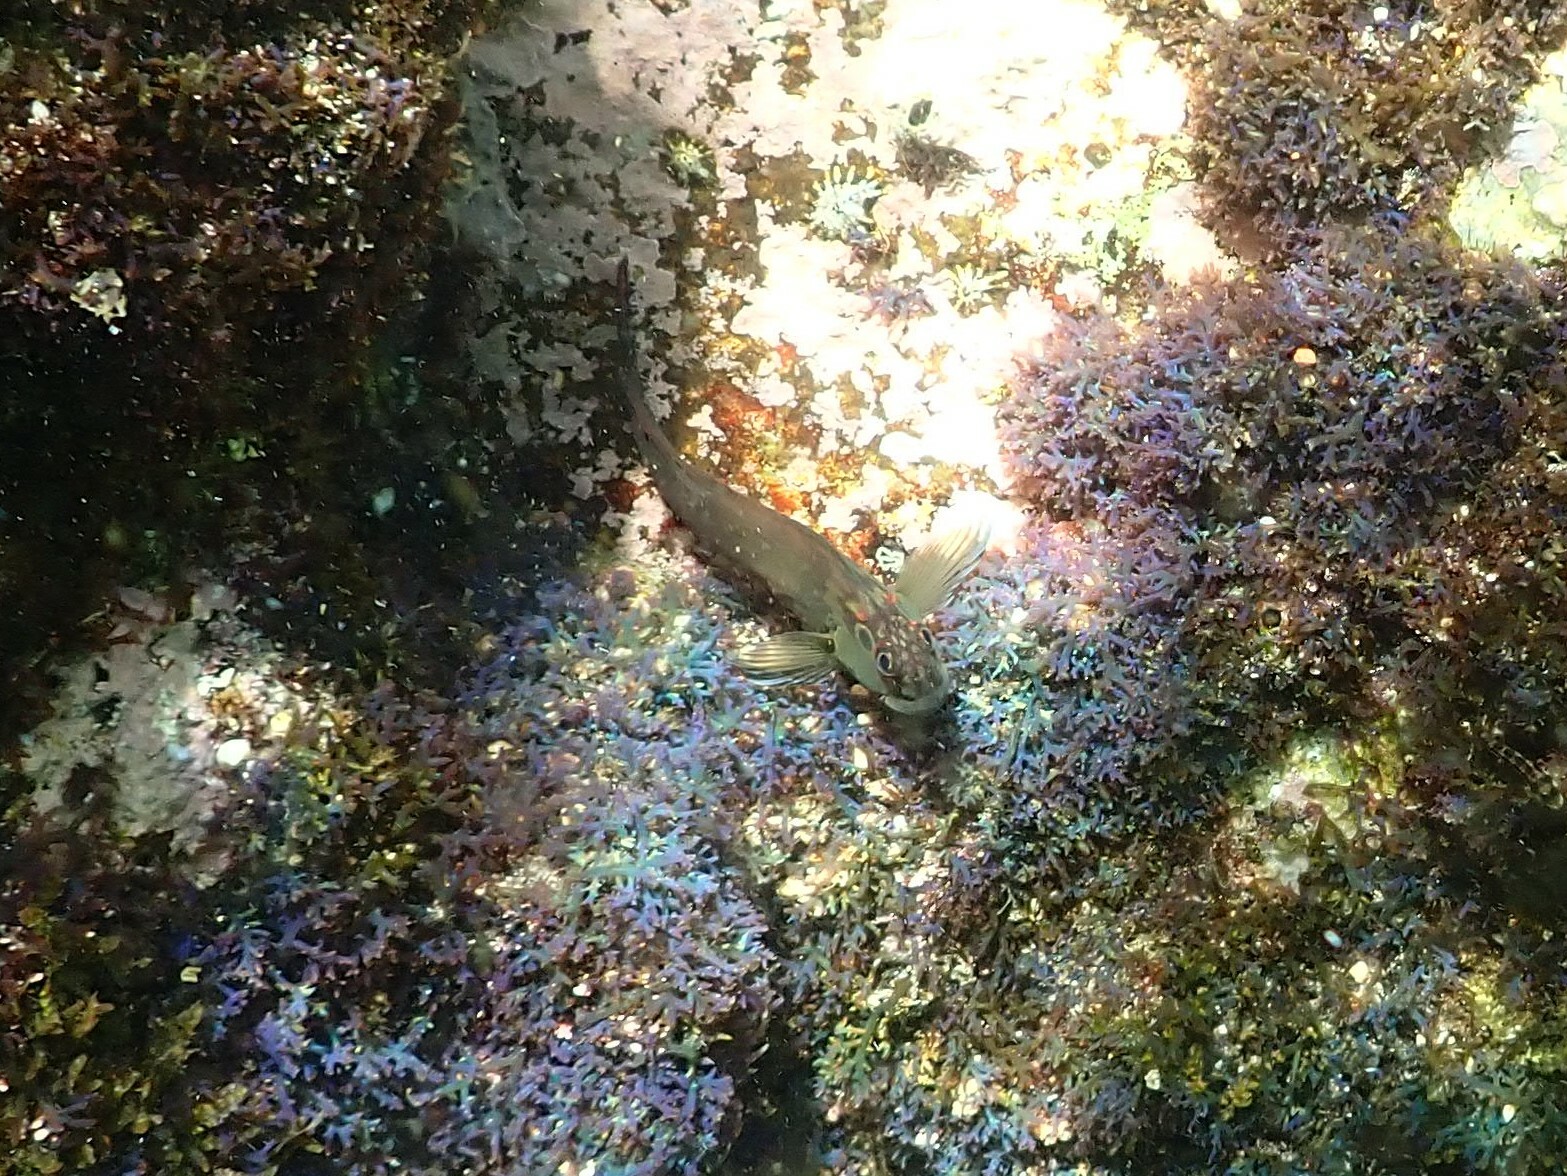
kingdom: Animalia
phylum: Chordata
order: Perciformes
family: Blenniidae
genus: Ophioblennius
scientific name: Ophioblennius steindachneri
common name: Panamic fanged blenny
